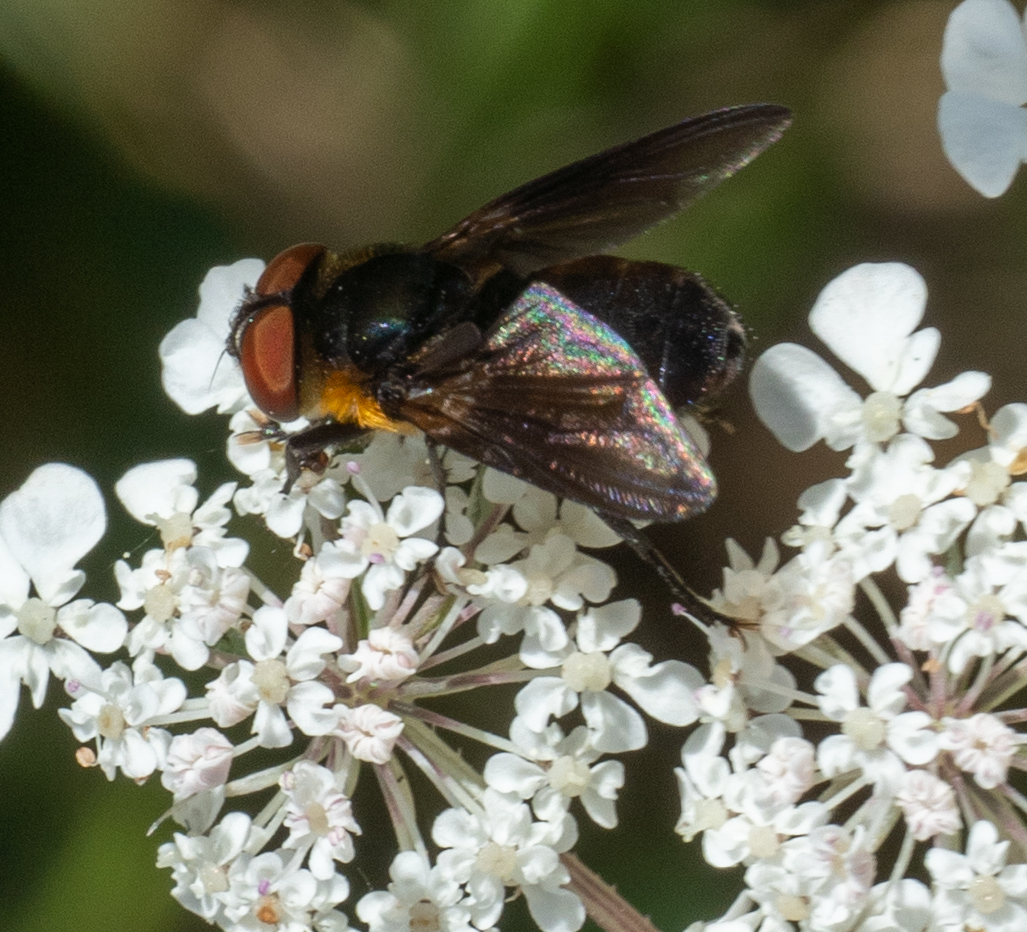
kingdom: Animalia
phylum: Arthropoda
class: Insecta
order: Diptera
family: Tachinidae
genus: Phasia
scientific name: Phasia hemiptera
